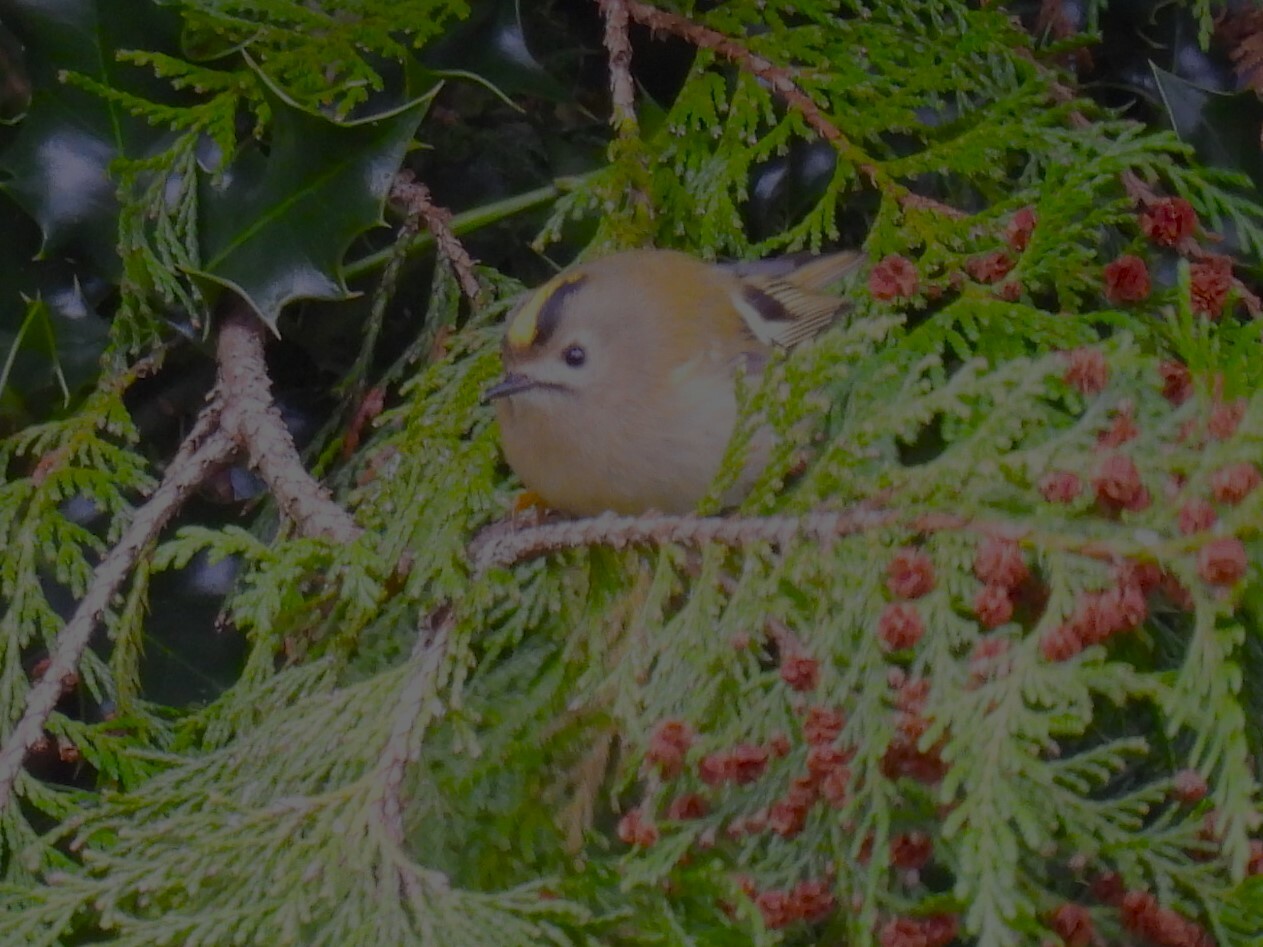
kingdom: Animalia
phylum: Chordata
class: Aves
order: Passeriformes
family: Regulidae
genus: Regulus
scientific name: Regulus regulus
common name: Goldcrest
